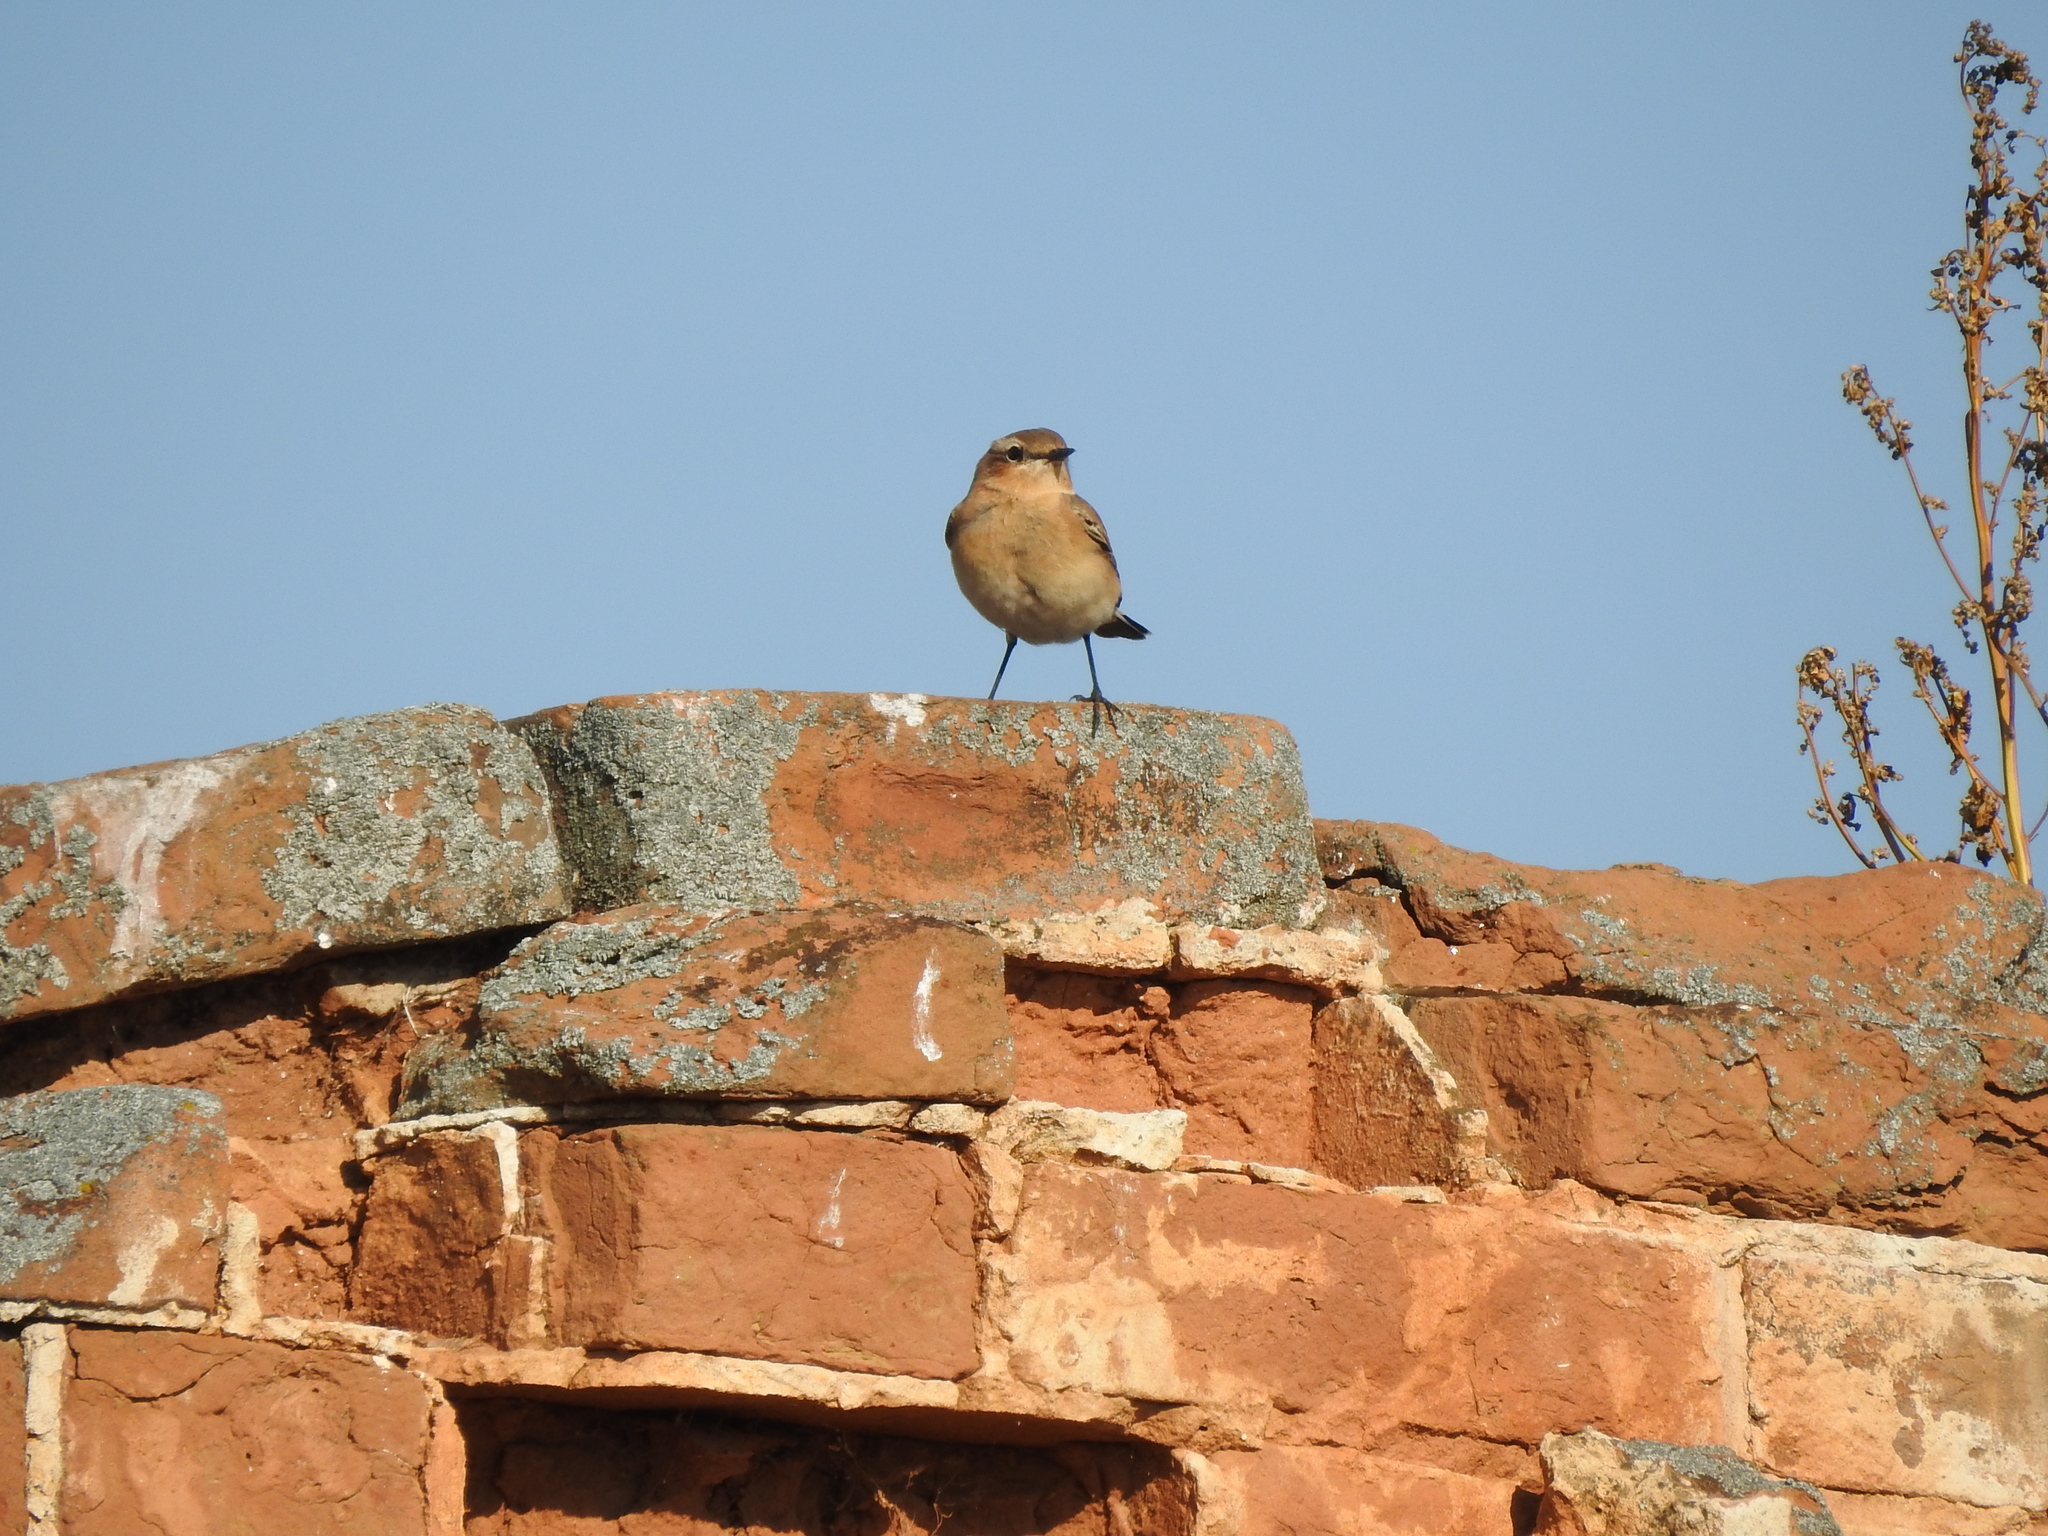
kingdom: Animalia
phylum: Chordata
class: Aves
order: Passeriformes
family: Muscicapidae
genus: Oenanthe
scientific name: Oenanthe oenanthe
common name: Northern wheatear
